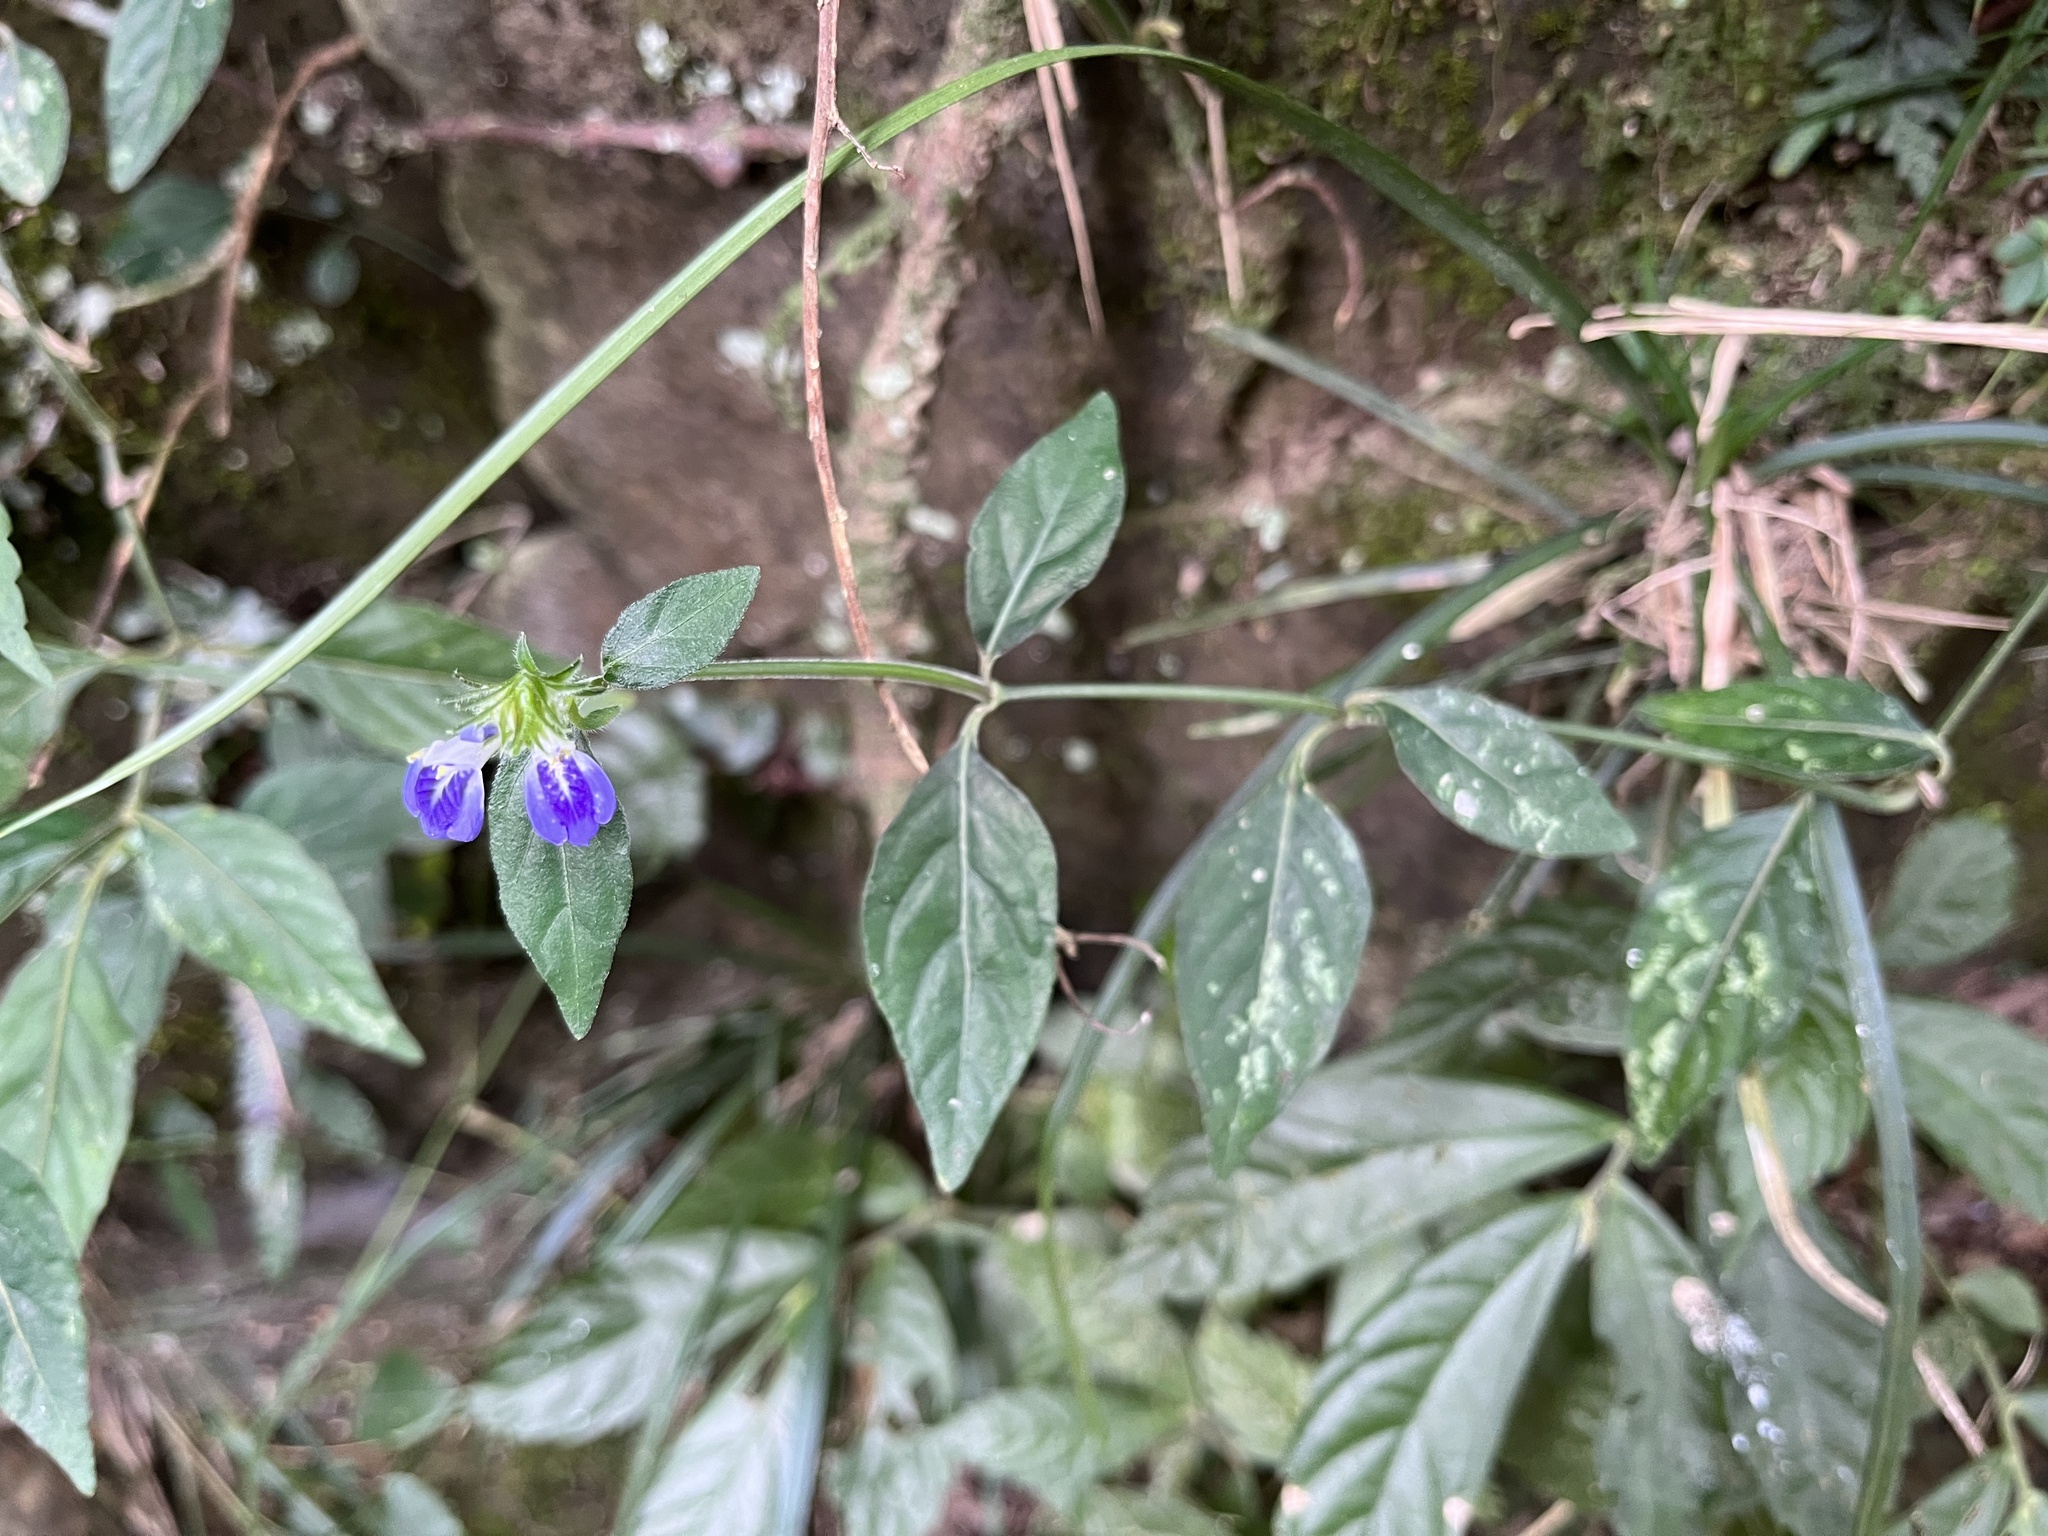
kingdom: Plantae
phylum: Tracheophyta
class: Magnoliopsida
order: Lamiales
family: Acanthaceae
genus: Rungia
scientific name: Rungia taiwanensis
